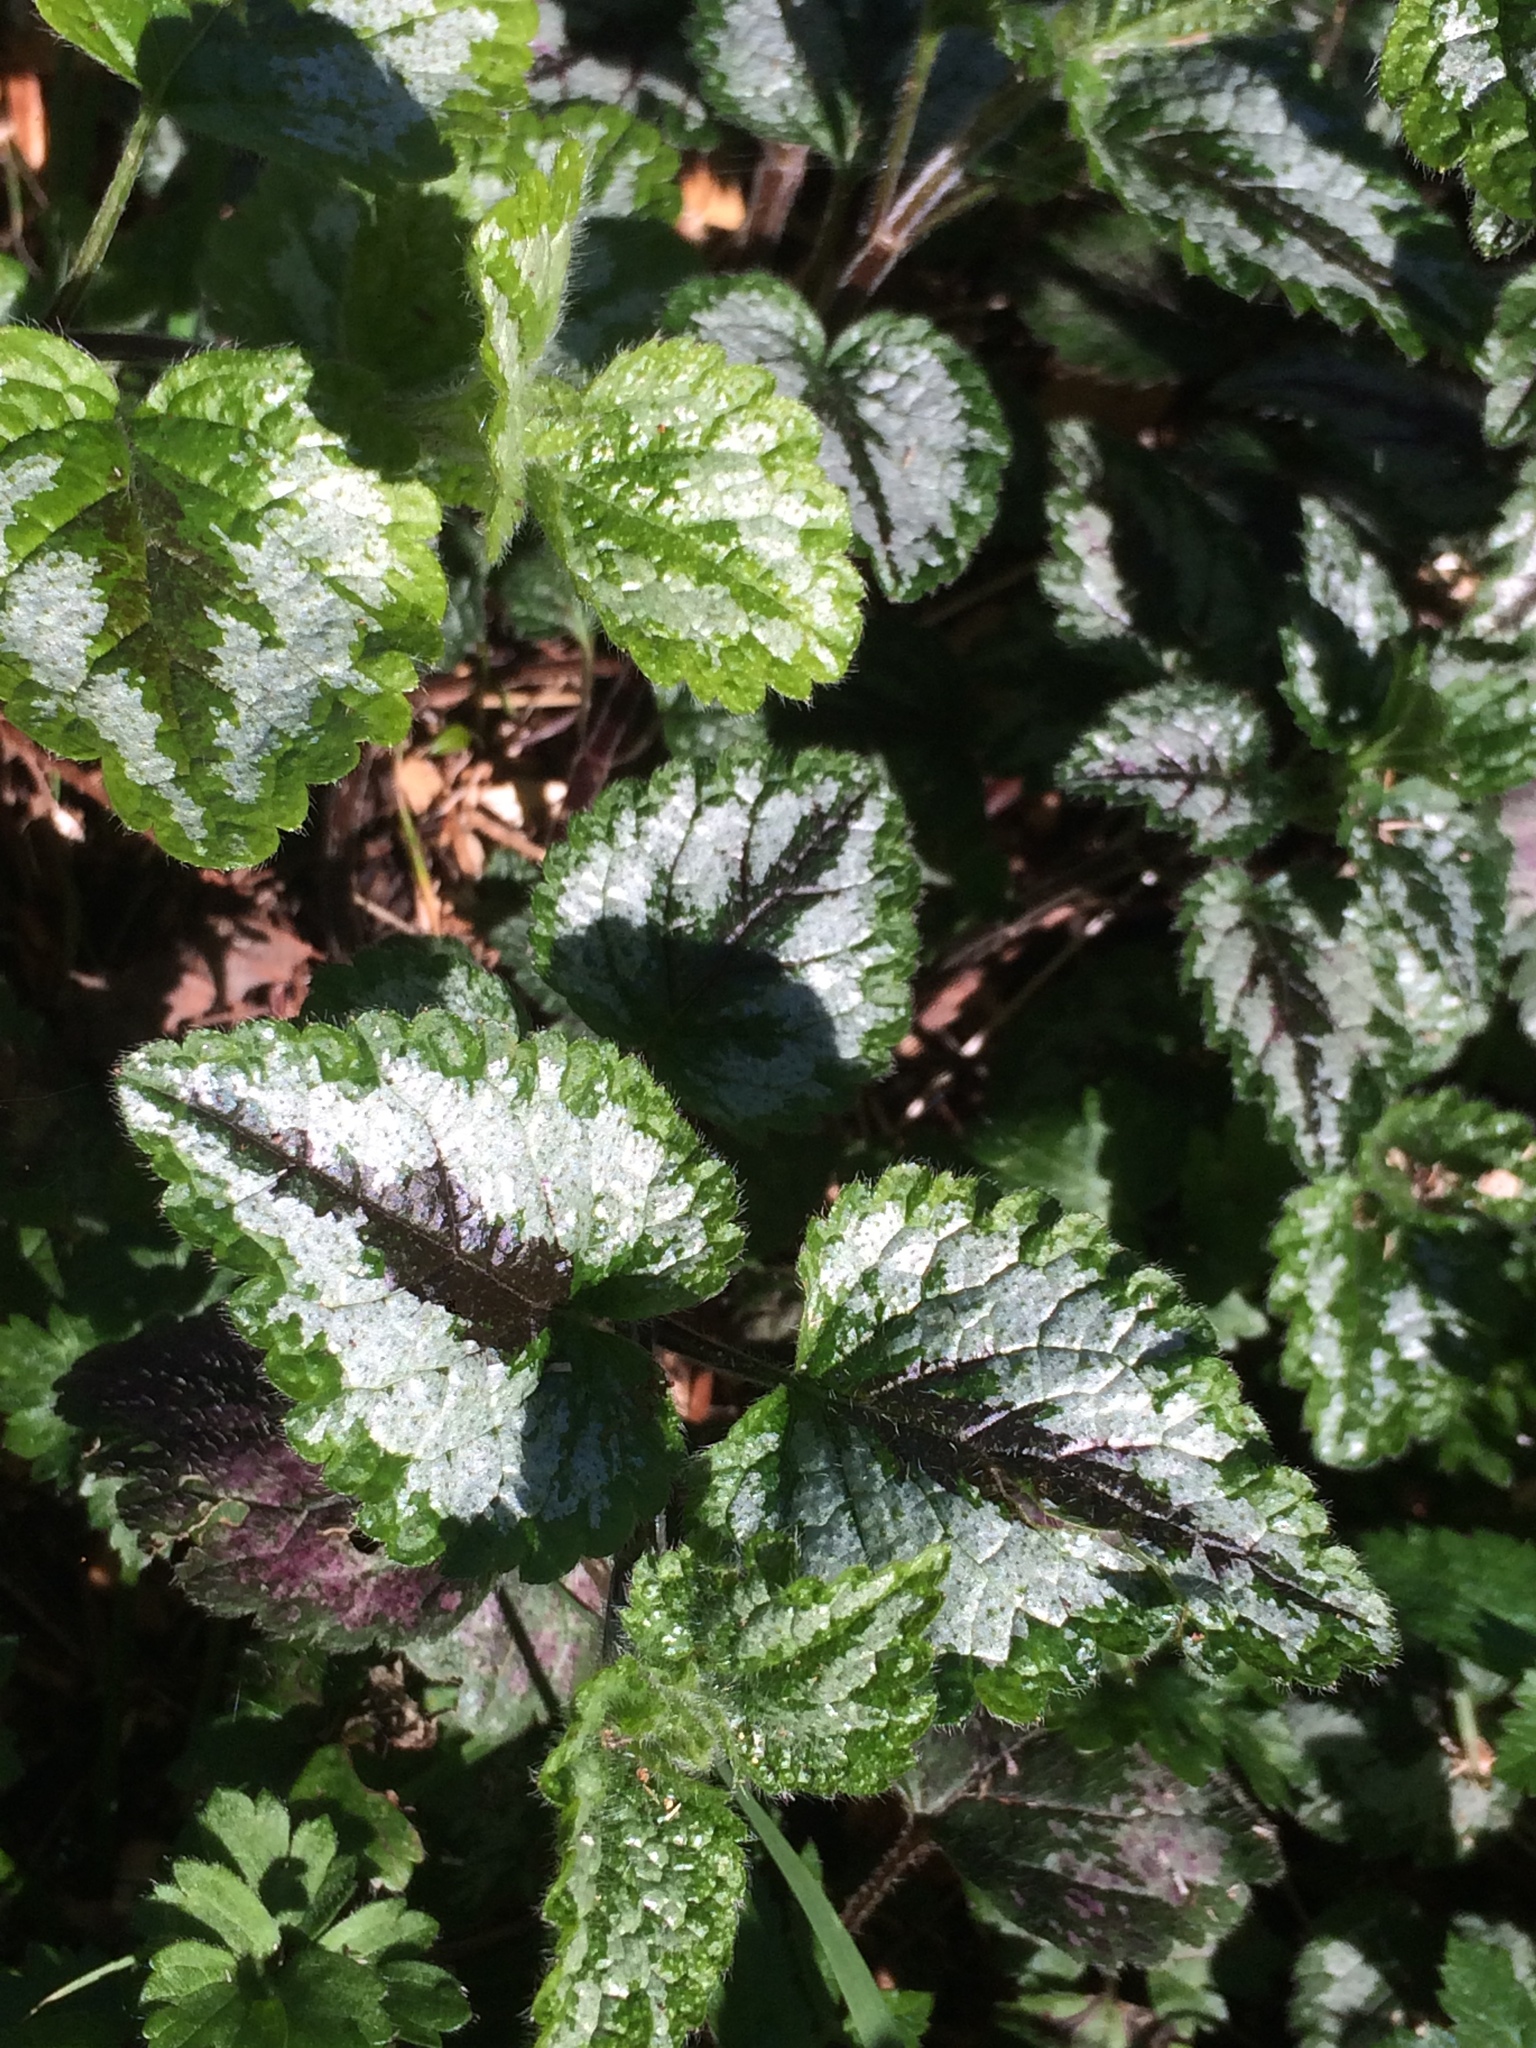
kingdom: Plantae
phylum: Tracheophyta
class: Magnoliopsida
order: Lamiales
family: Lamiaceae
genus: Lamium
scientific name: Lamium galeobdolon
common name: Yellow archangel
